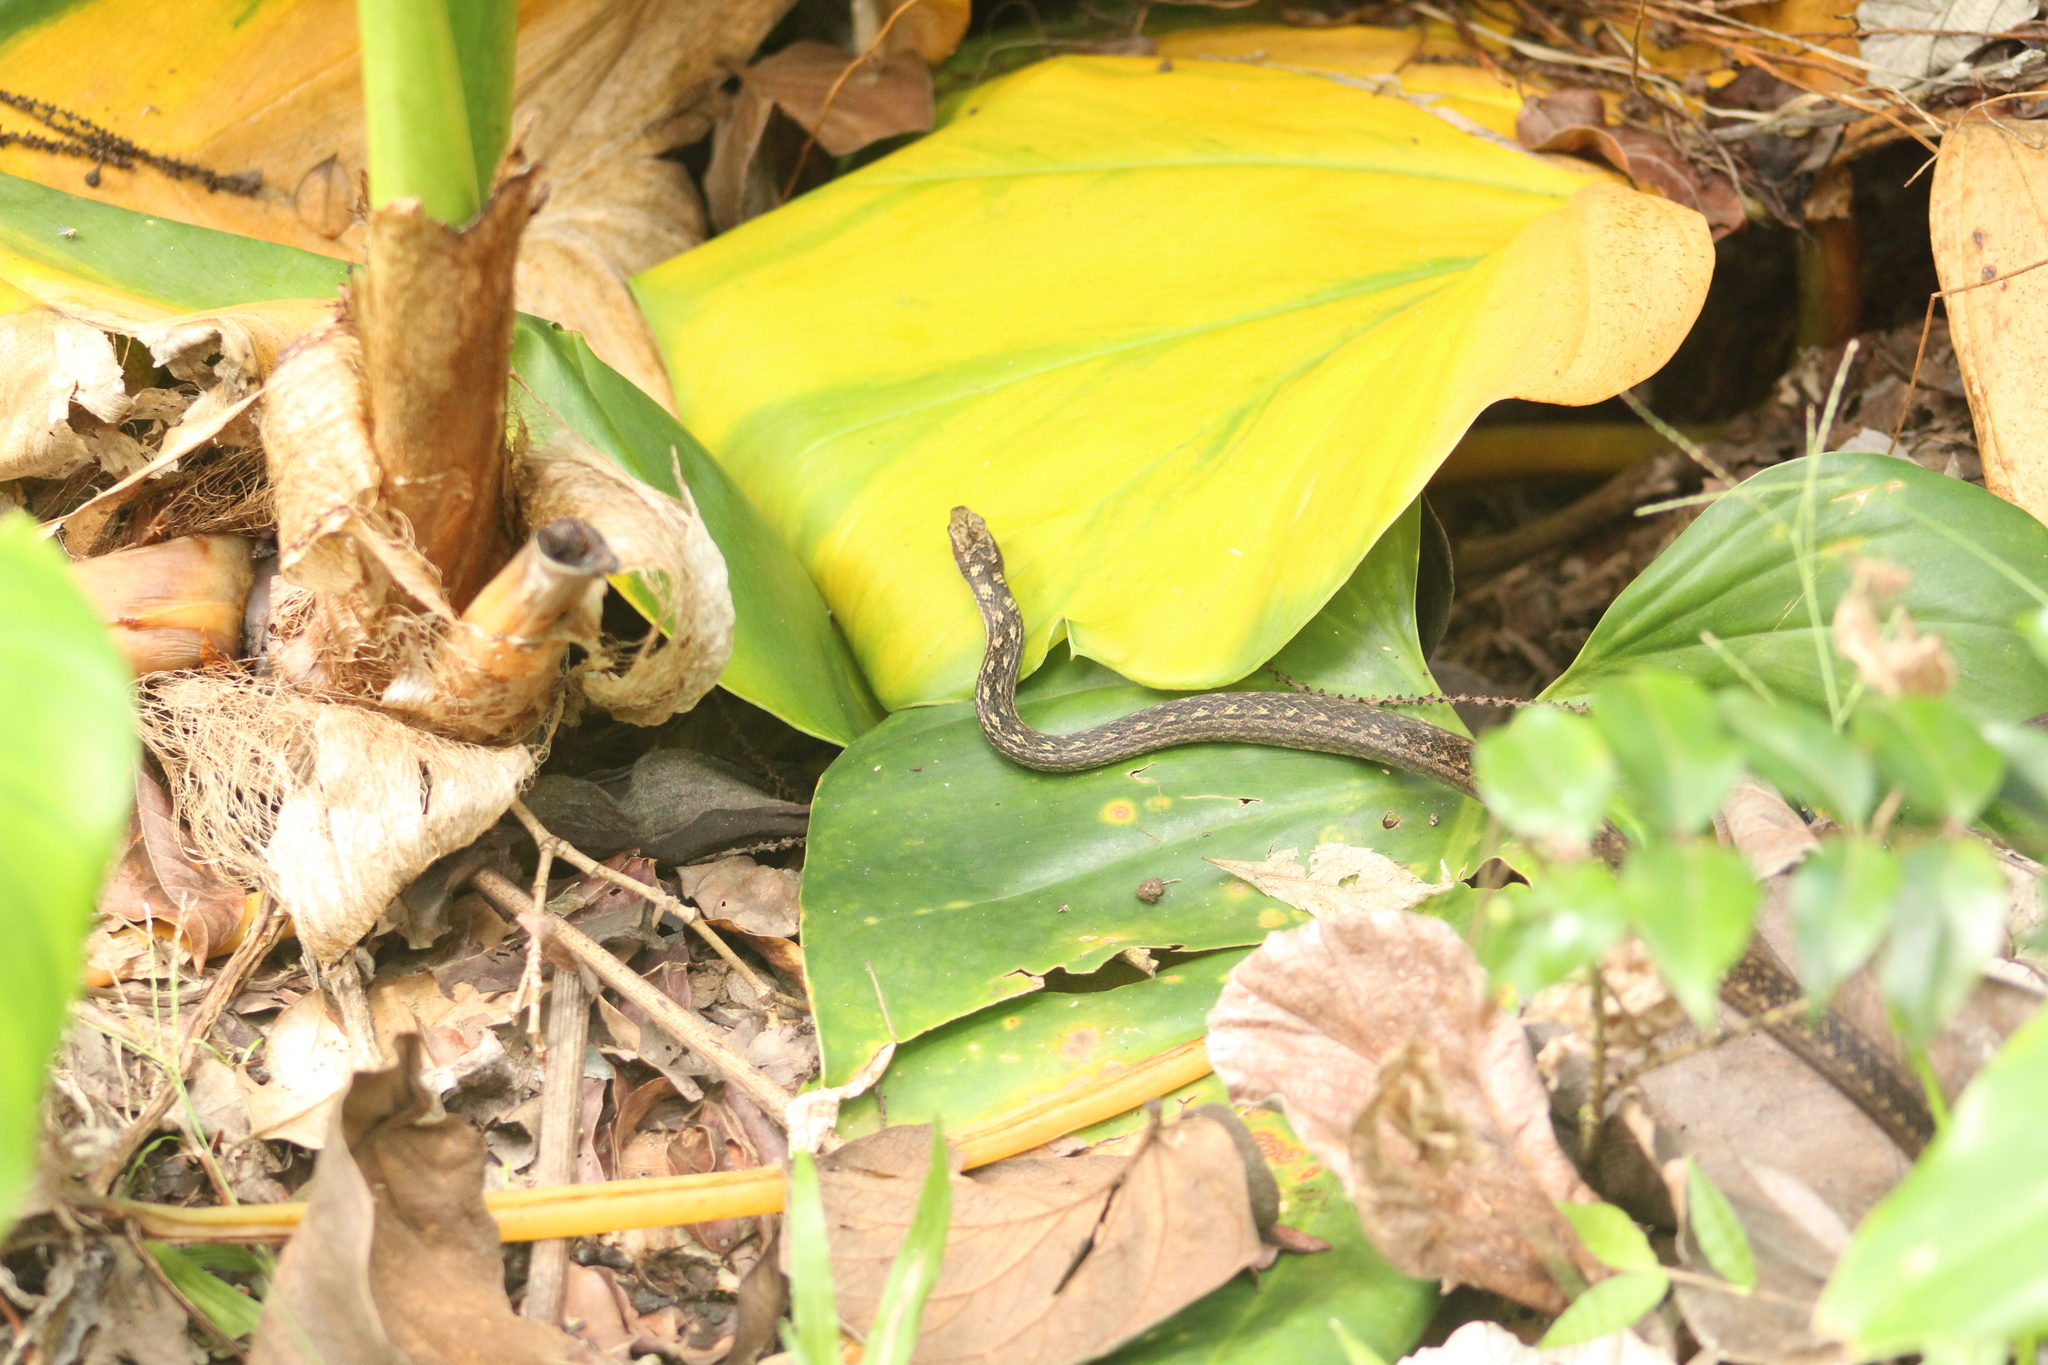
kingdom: Animalia
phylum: Chordata
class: Squamata
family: Colubridae
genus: Alsophis
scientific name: Alsophis rufiventris
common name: Orange-bellied racer
